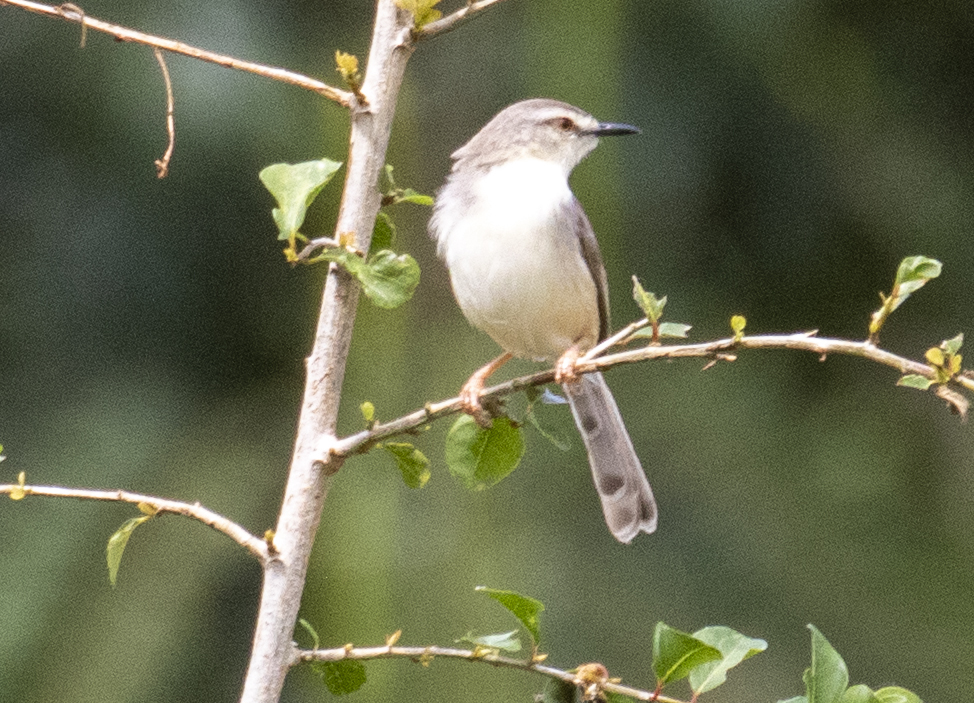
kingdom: Animalia
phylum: Chordata
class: Aves
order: Passeriformes
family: Cisticolidae
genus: Prinia
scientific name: Prinia subflava
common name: Tawny-flanked prinia
